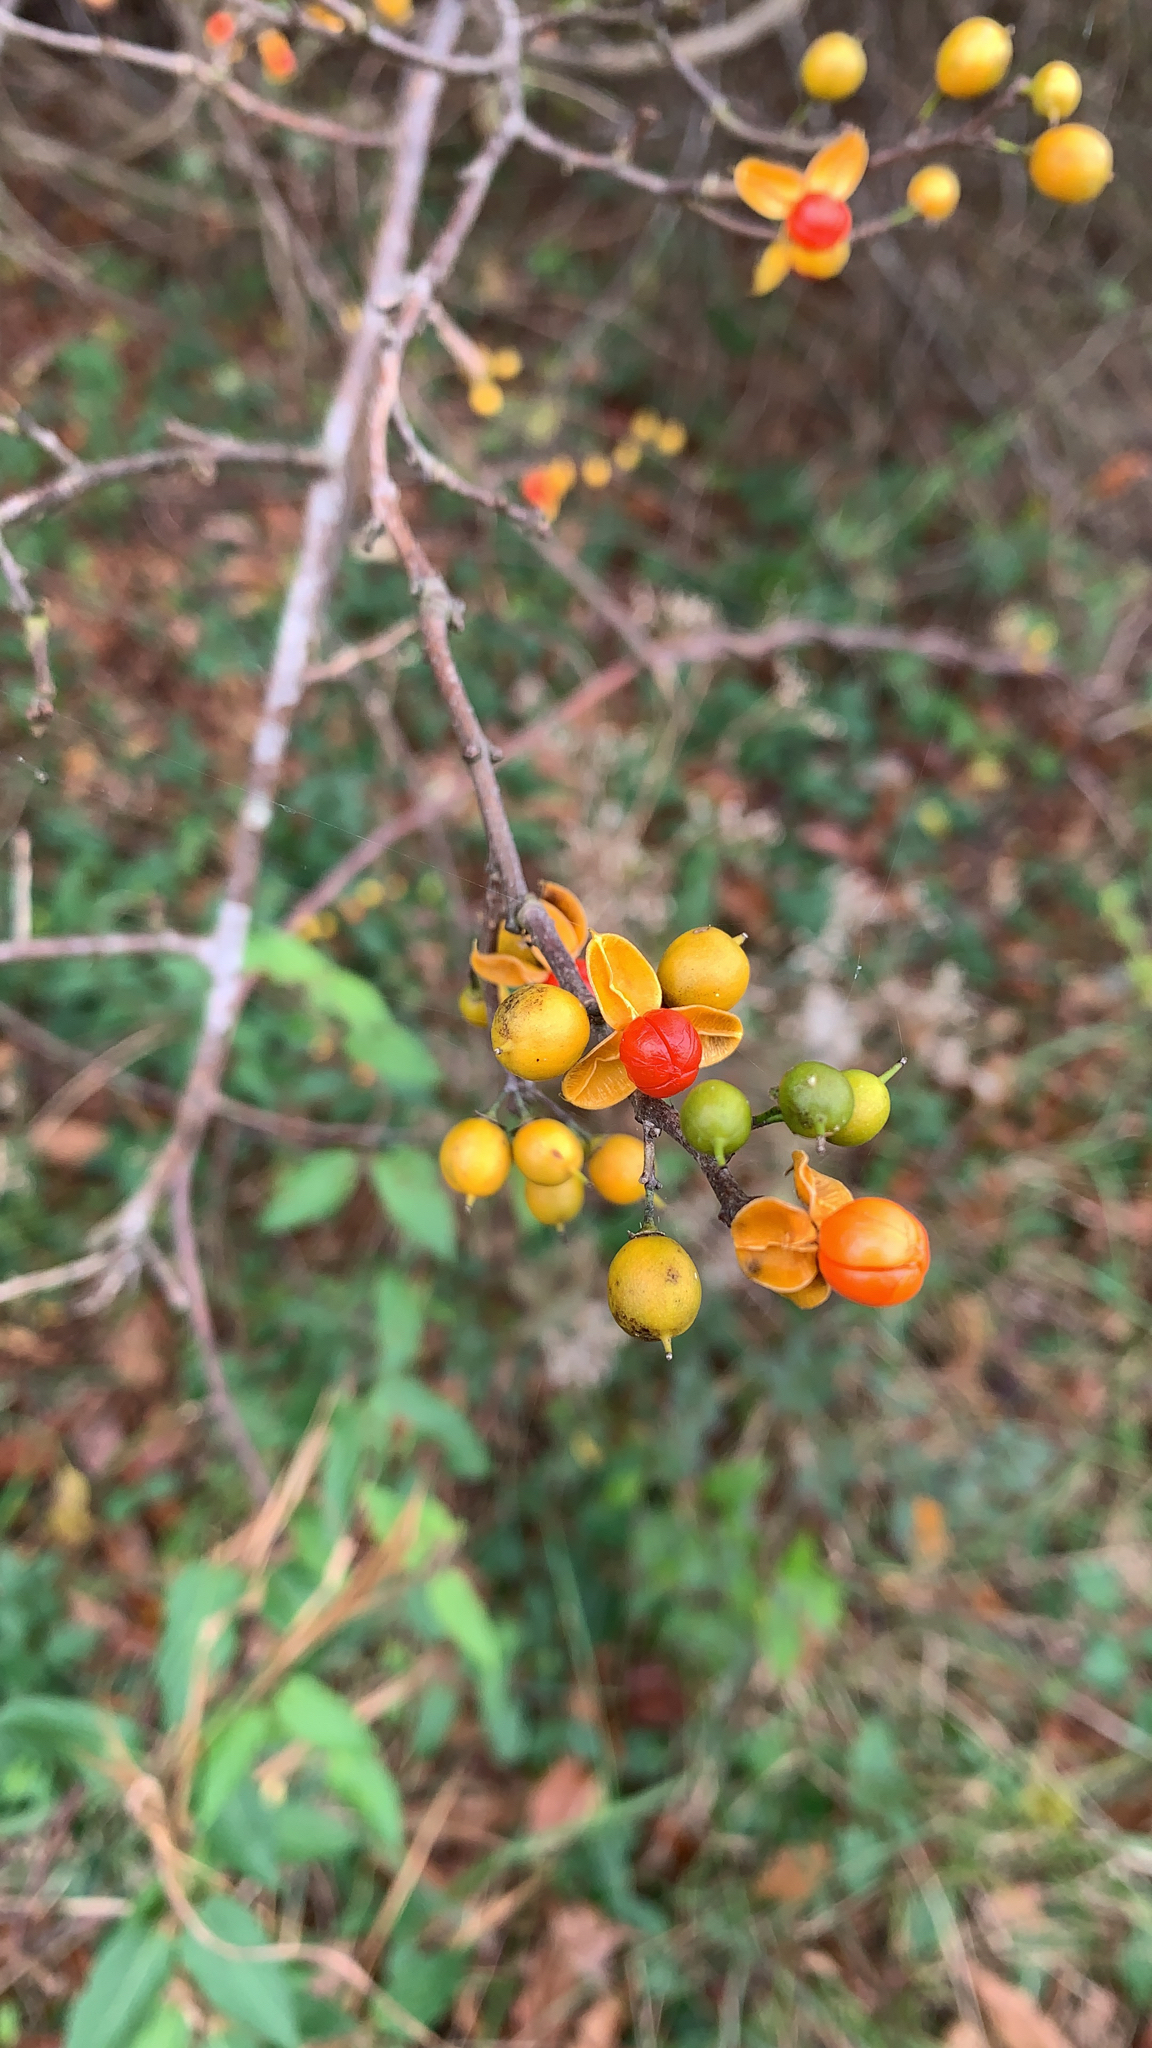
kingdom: Plantae
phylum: Tracheophyta
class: Magnoliopsida
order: Celastrales
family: Celastraceae
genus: Celastrus
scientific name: Celastrus orbiculatus
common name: Oriental bittersweet
